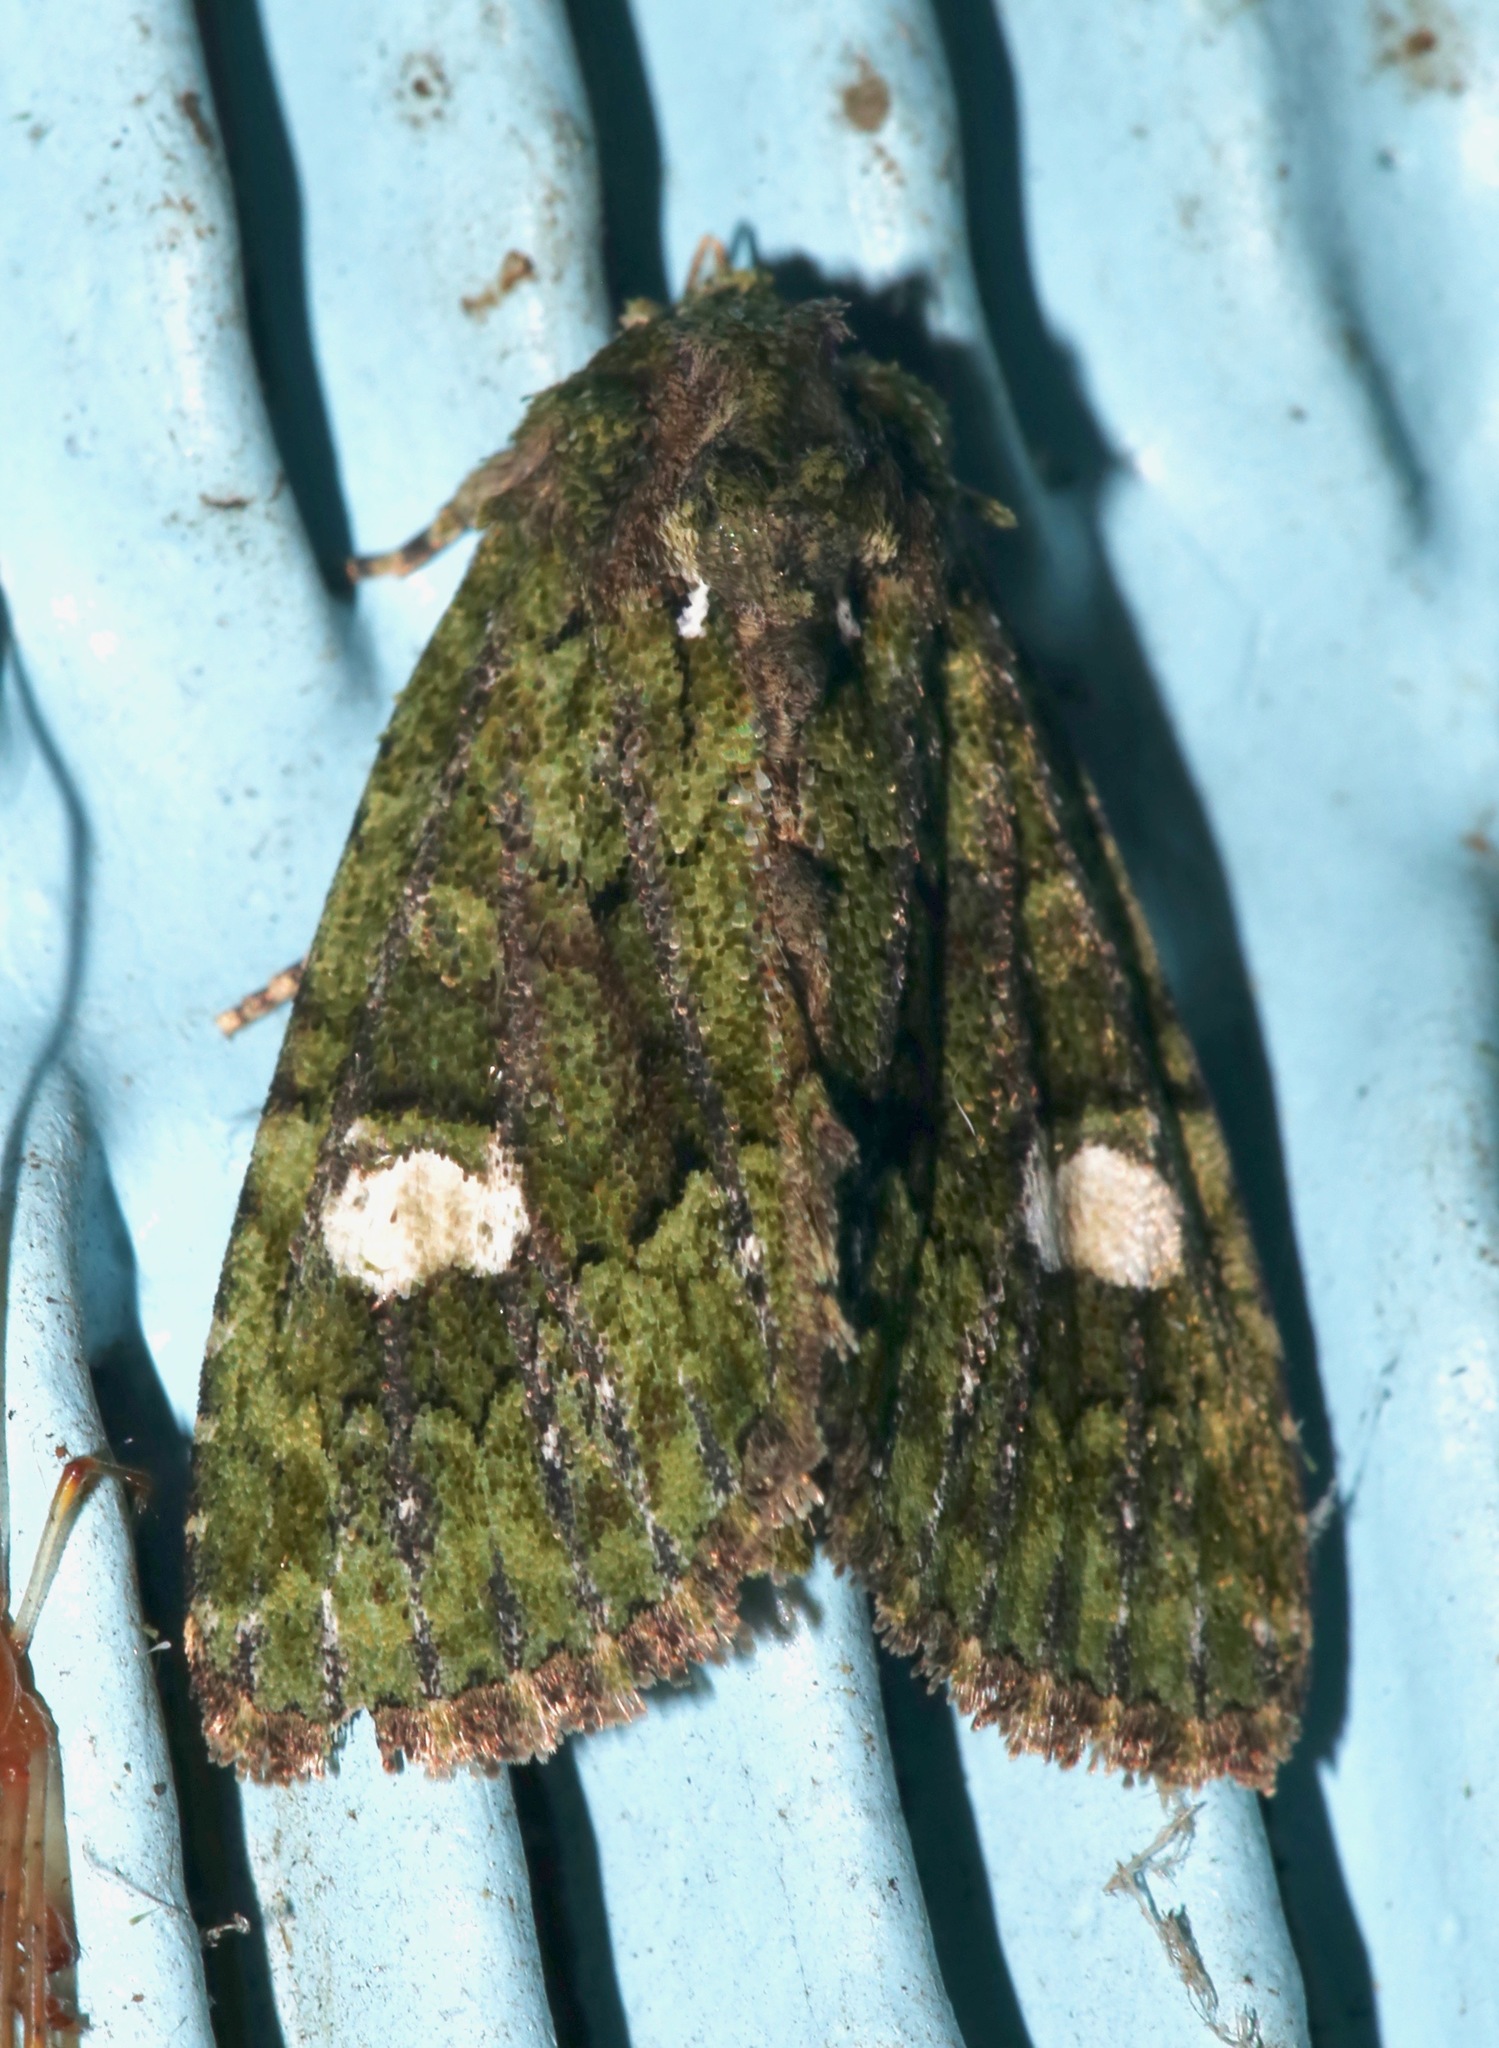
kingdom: Animalia
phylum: Arthropoda
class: Insecta
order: Lepidoptera
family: Noctuidae
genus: Phosphila
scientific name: Phosphila miselioides
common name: Spotted phosphila moth
